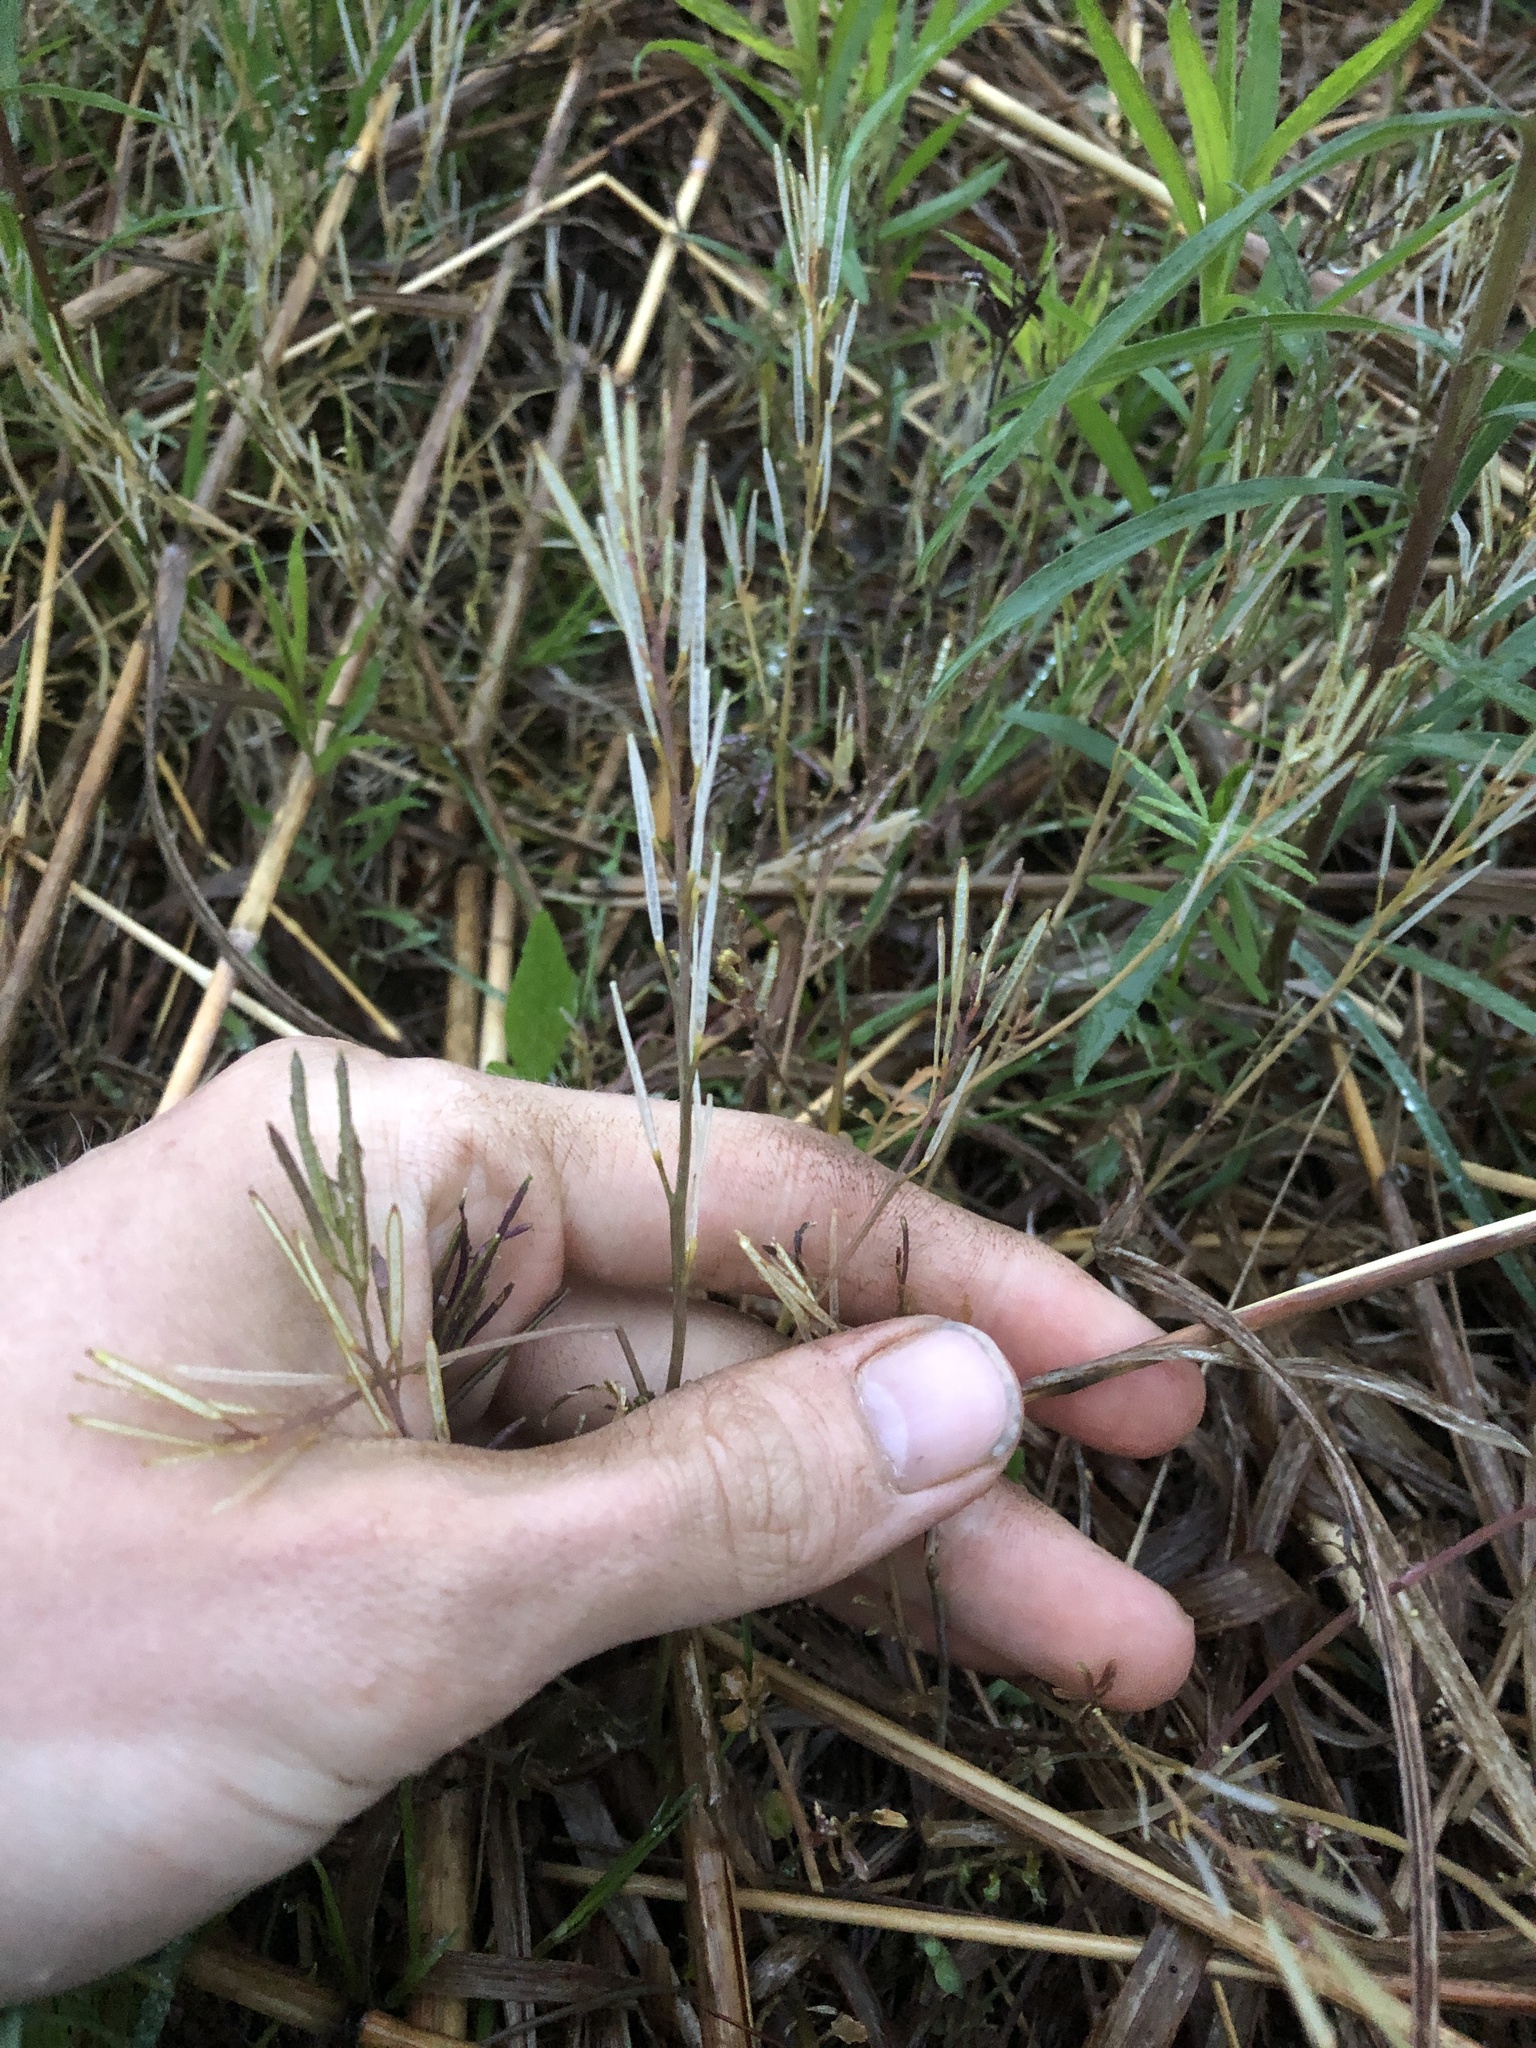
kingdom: Plantae
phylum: Tracheophyta
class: Magnoliopsida
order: Brassicales
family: Brassicaceae
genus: Cardamine
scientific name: Cardamine hirsuta
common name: Hairy bittercress
